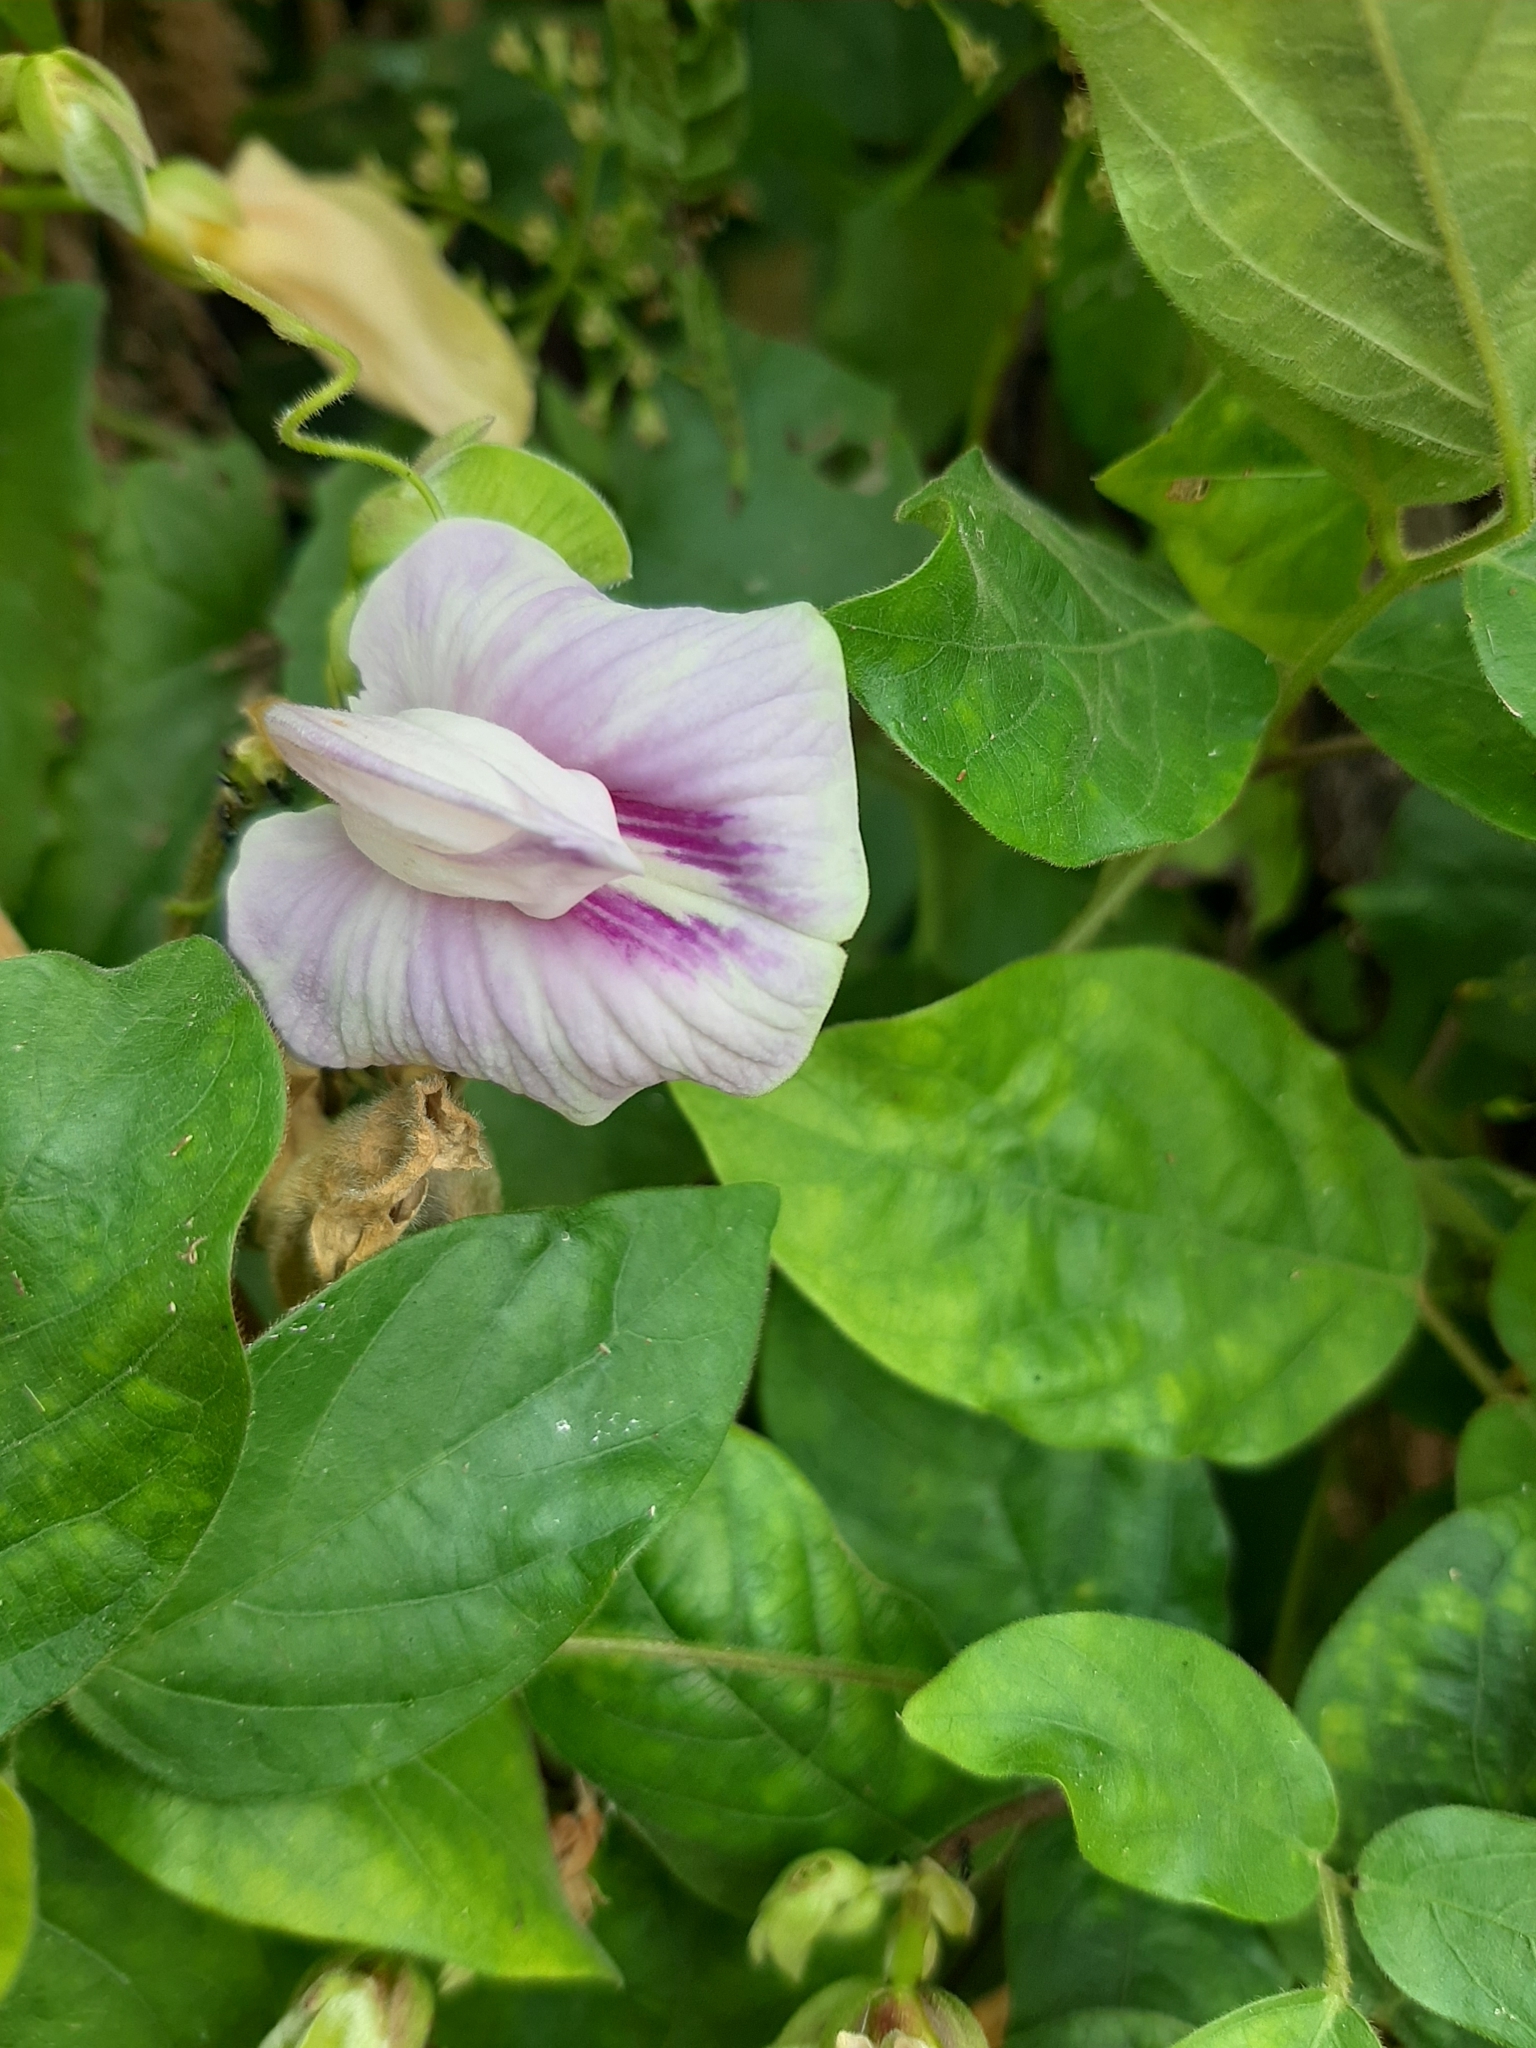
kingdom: Plantae
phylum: Tracheophyta
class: Magnoliopsida
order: Fabales
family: Fabaceae
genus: Centrosema
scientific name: Centrosema pubescens
